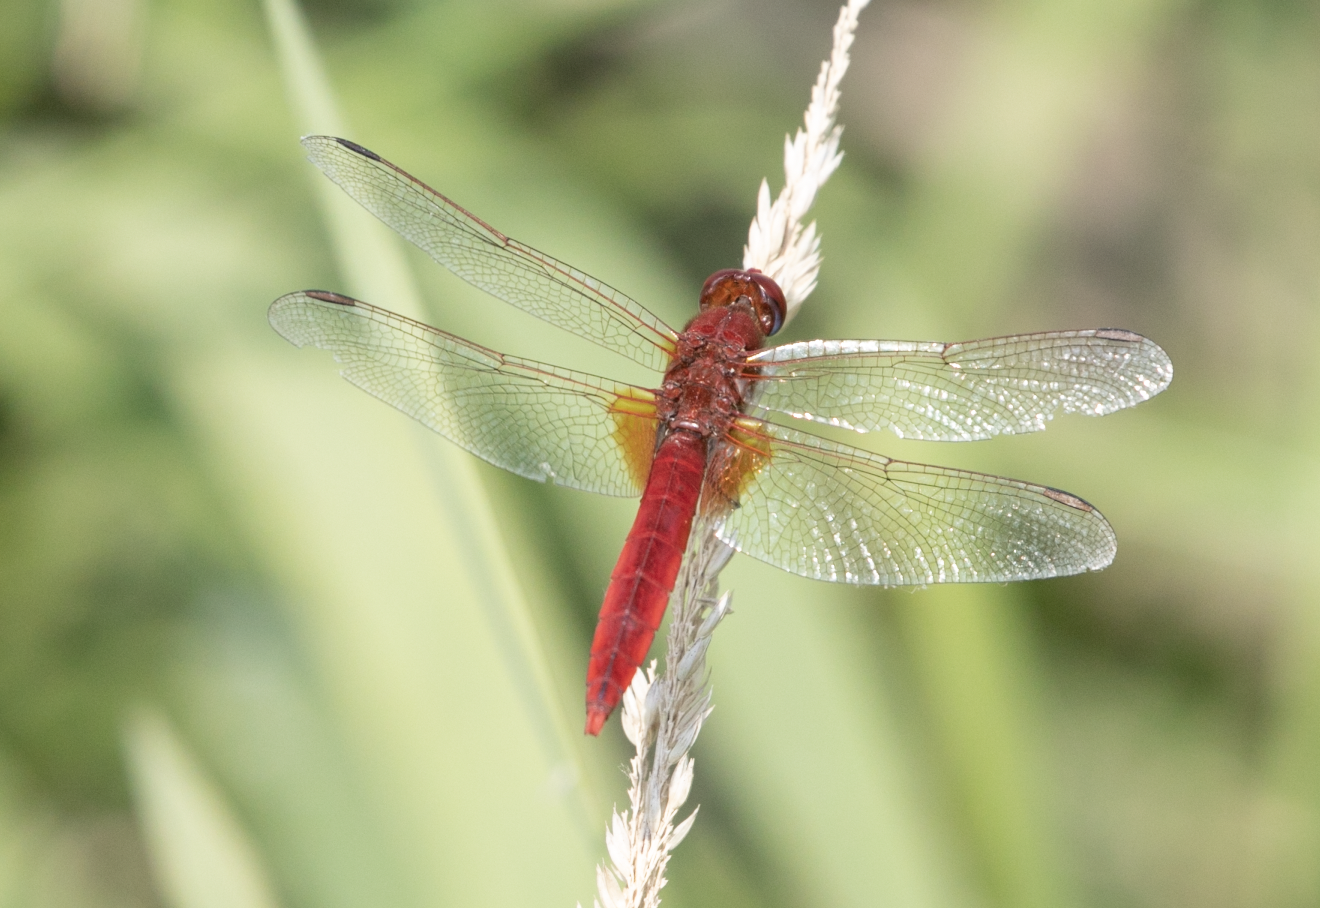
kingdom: Animalia
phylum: Arthropoda
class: Insecta
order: Odonata
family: Libellulidae
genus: Crocothemis
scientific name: Crocothemis erythraea
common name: Scarlet dragonfly
